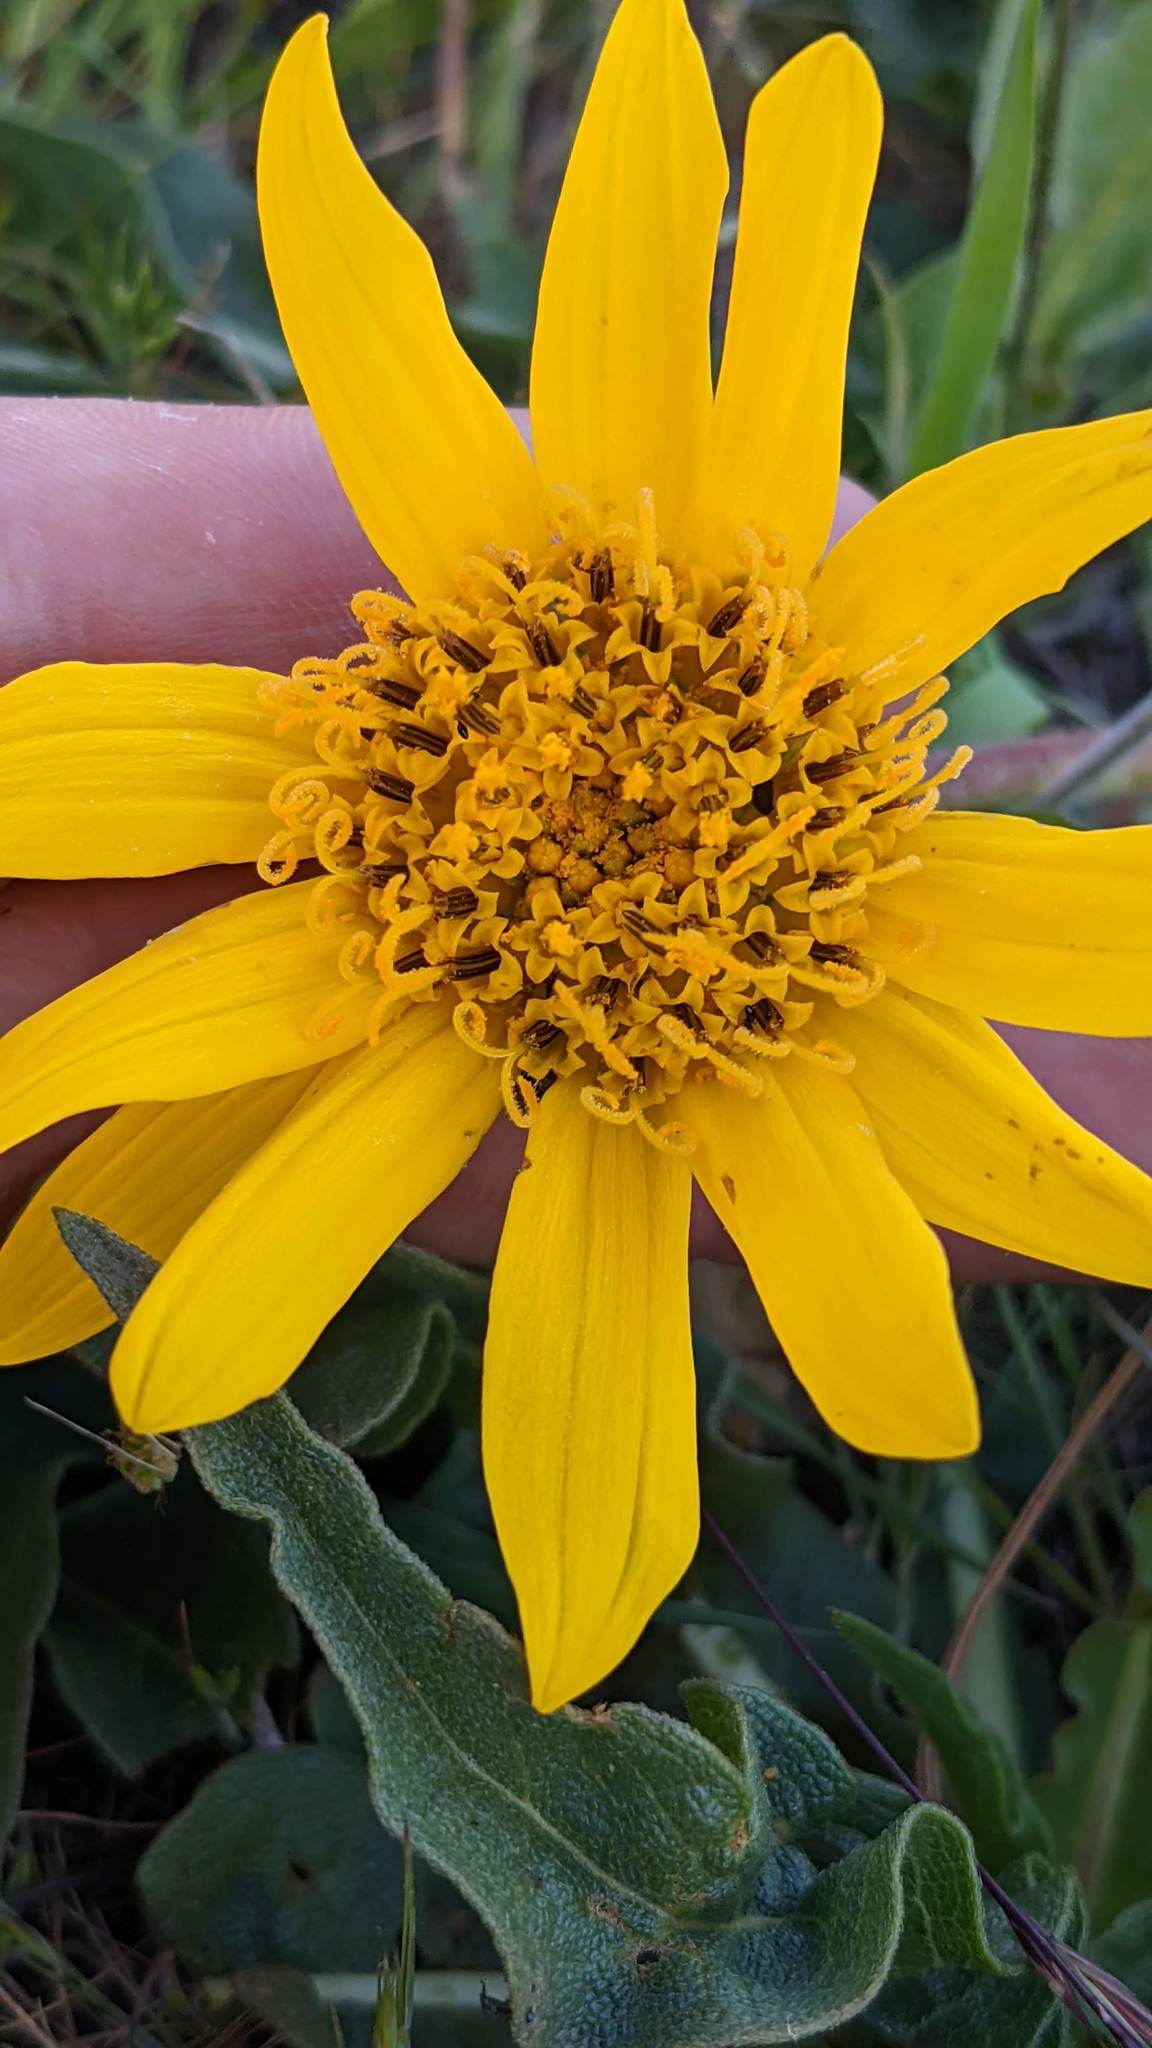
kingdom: Plantae
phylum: Tracheophyta
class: Magnoliopsida
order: Asterales
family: Asteraceae
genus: Wyethia
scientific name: Wyethia angustifolia
